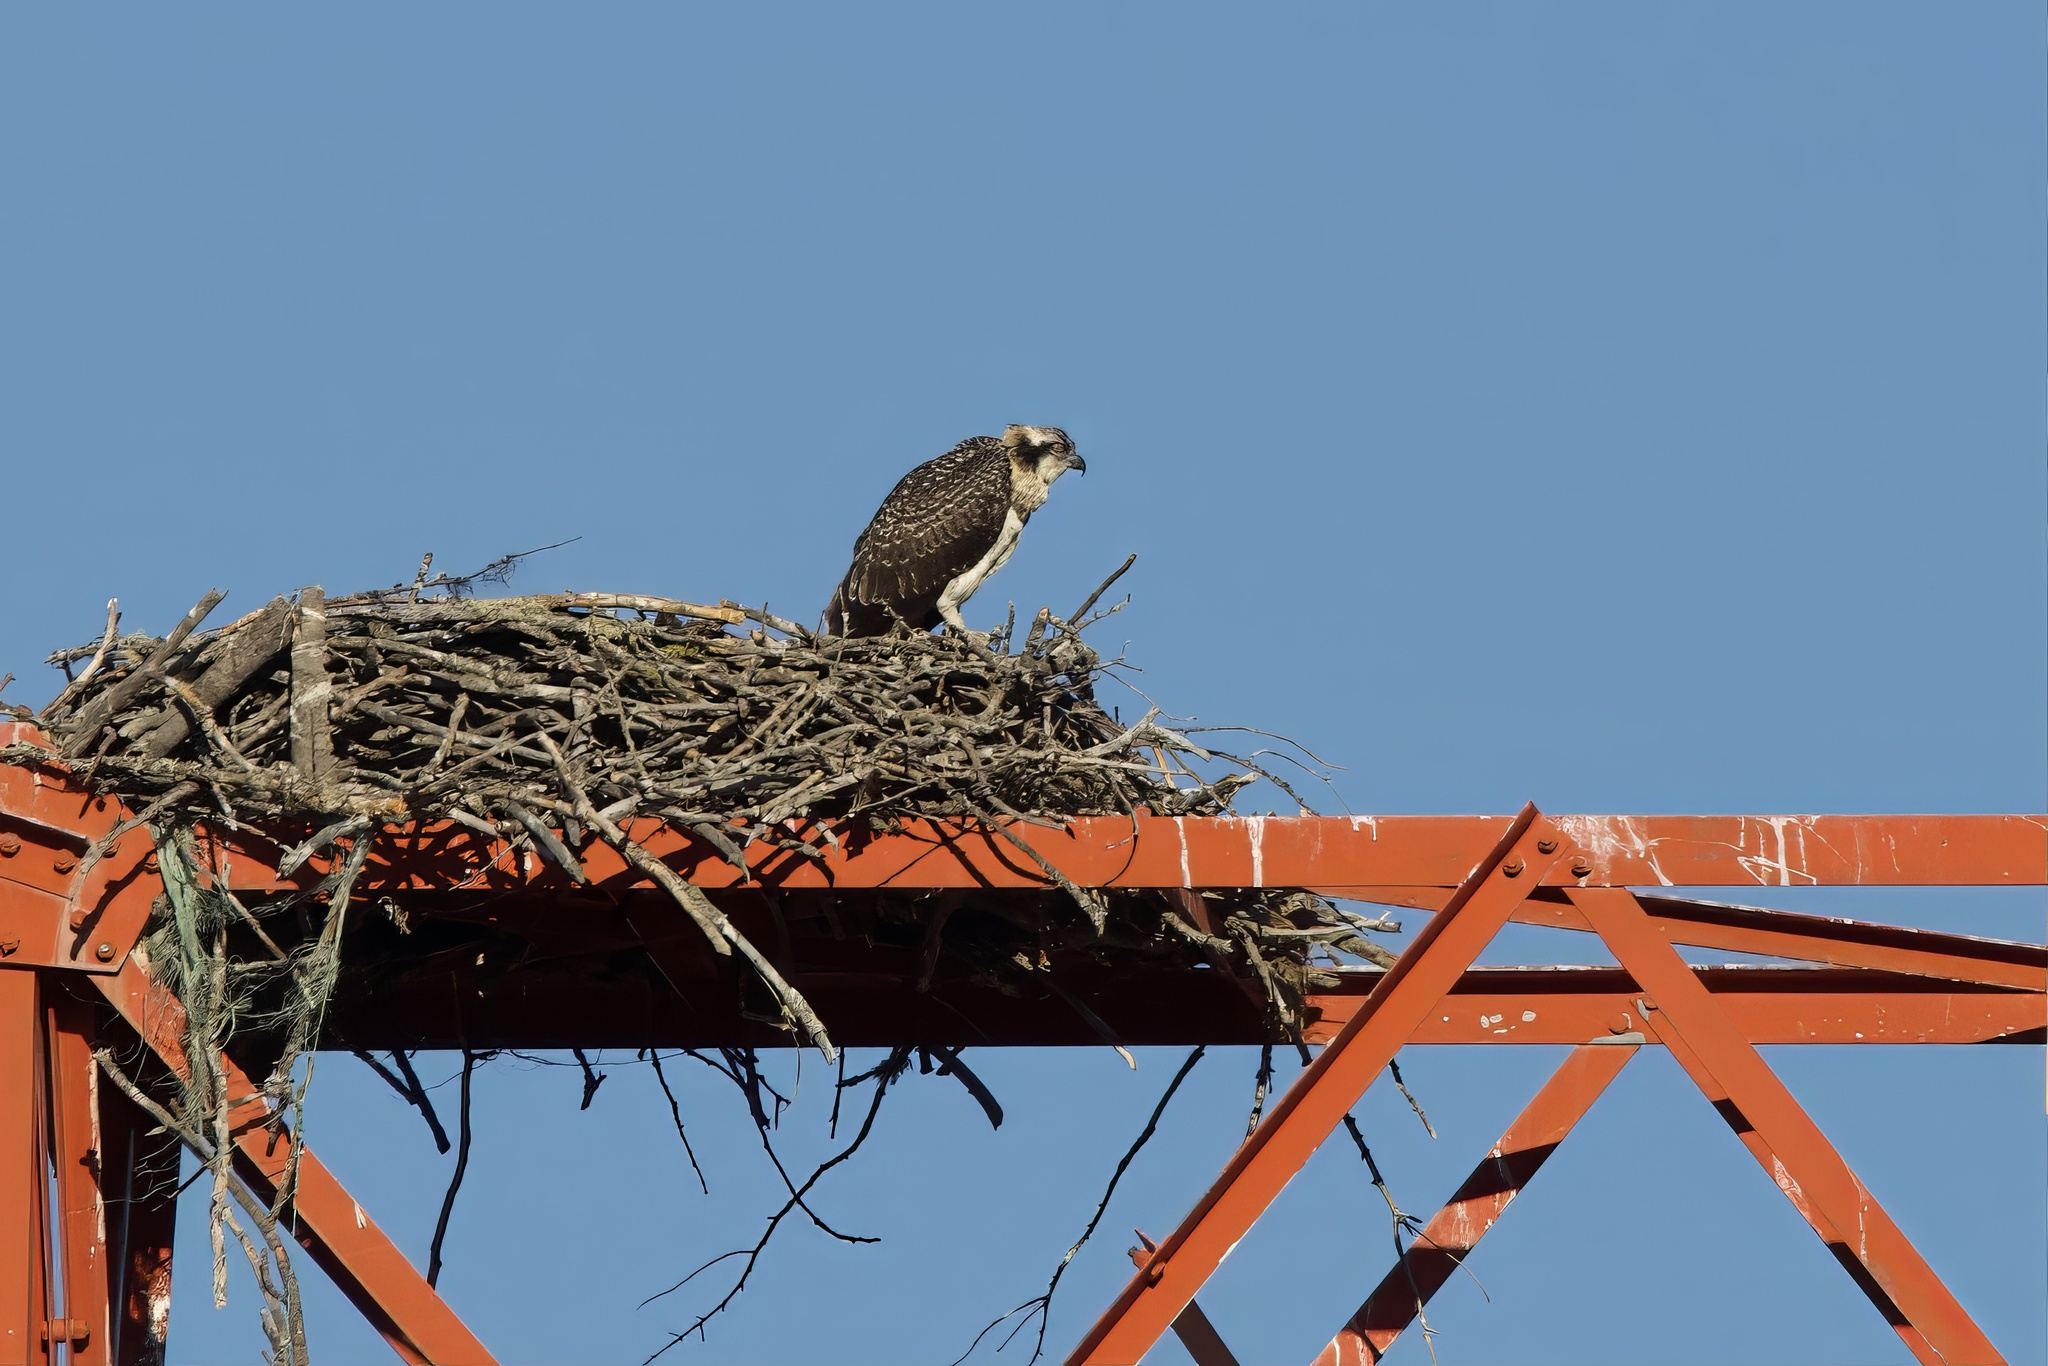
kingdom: Animalia
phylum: Chordata
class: Aves
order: Accipitriformes
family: Pandionidae
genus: Pandion
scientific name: Pandion haliaetus
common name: Osprey
